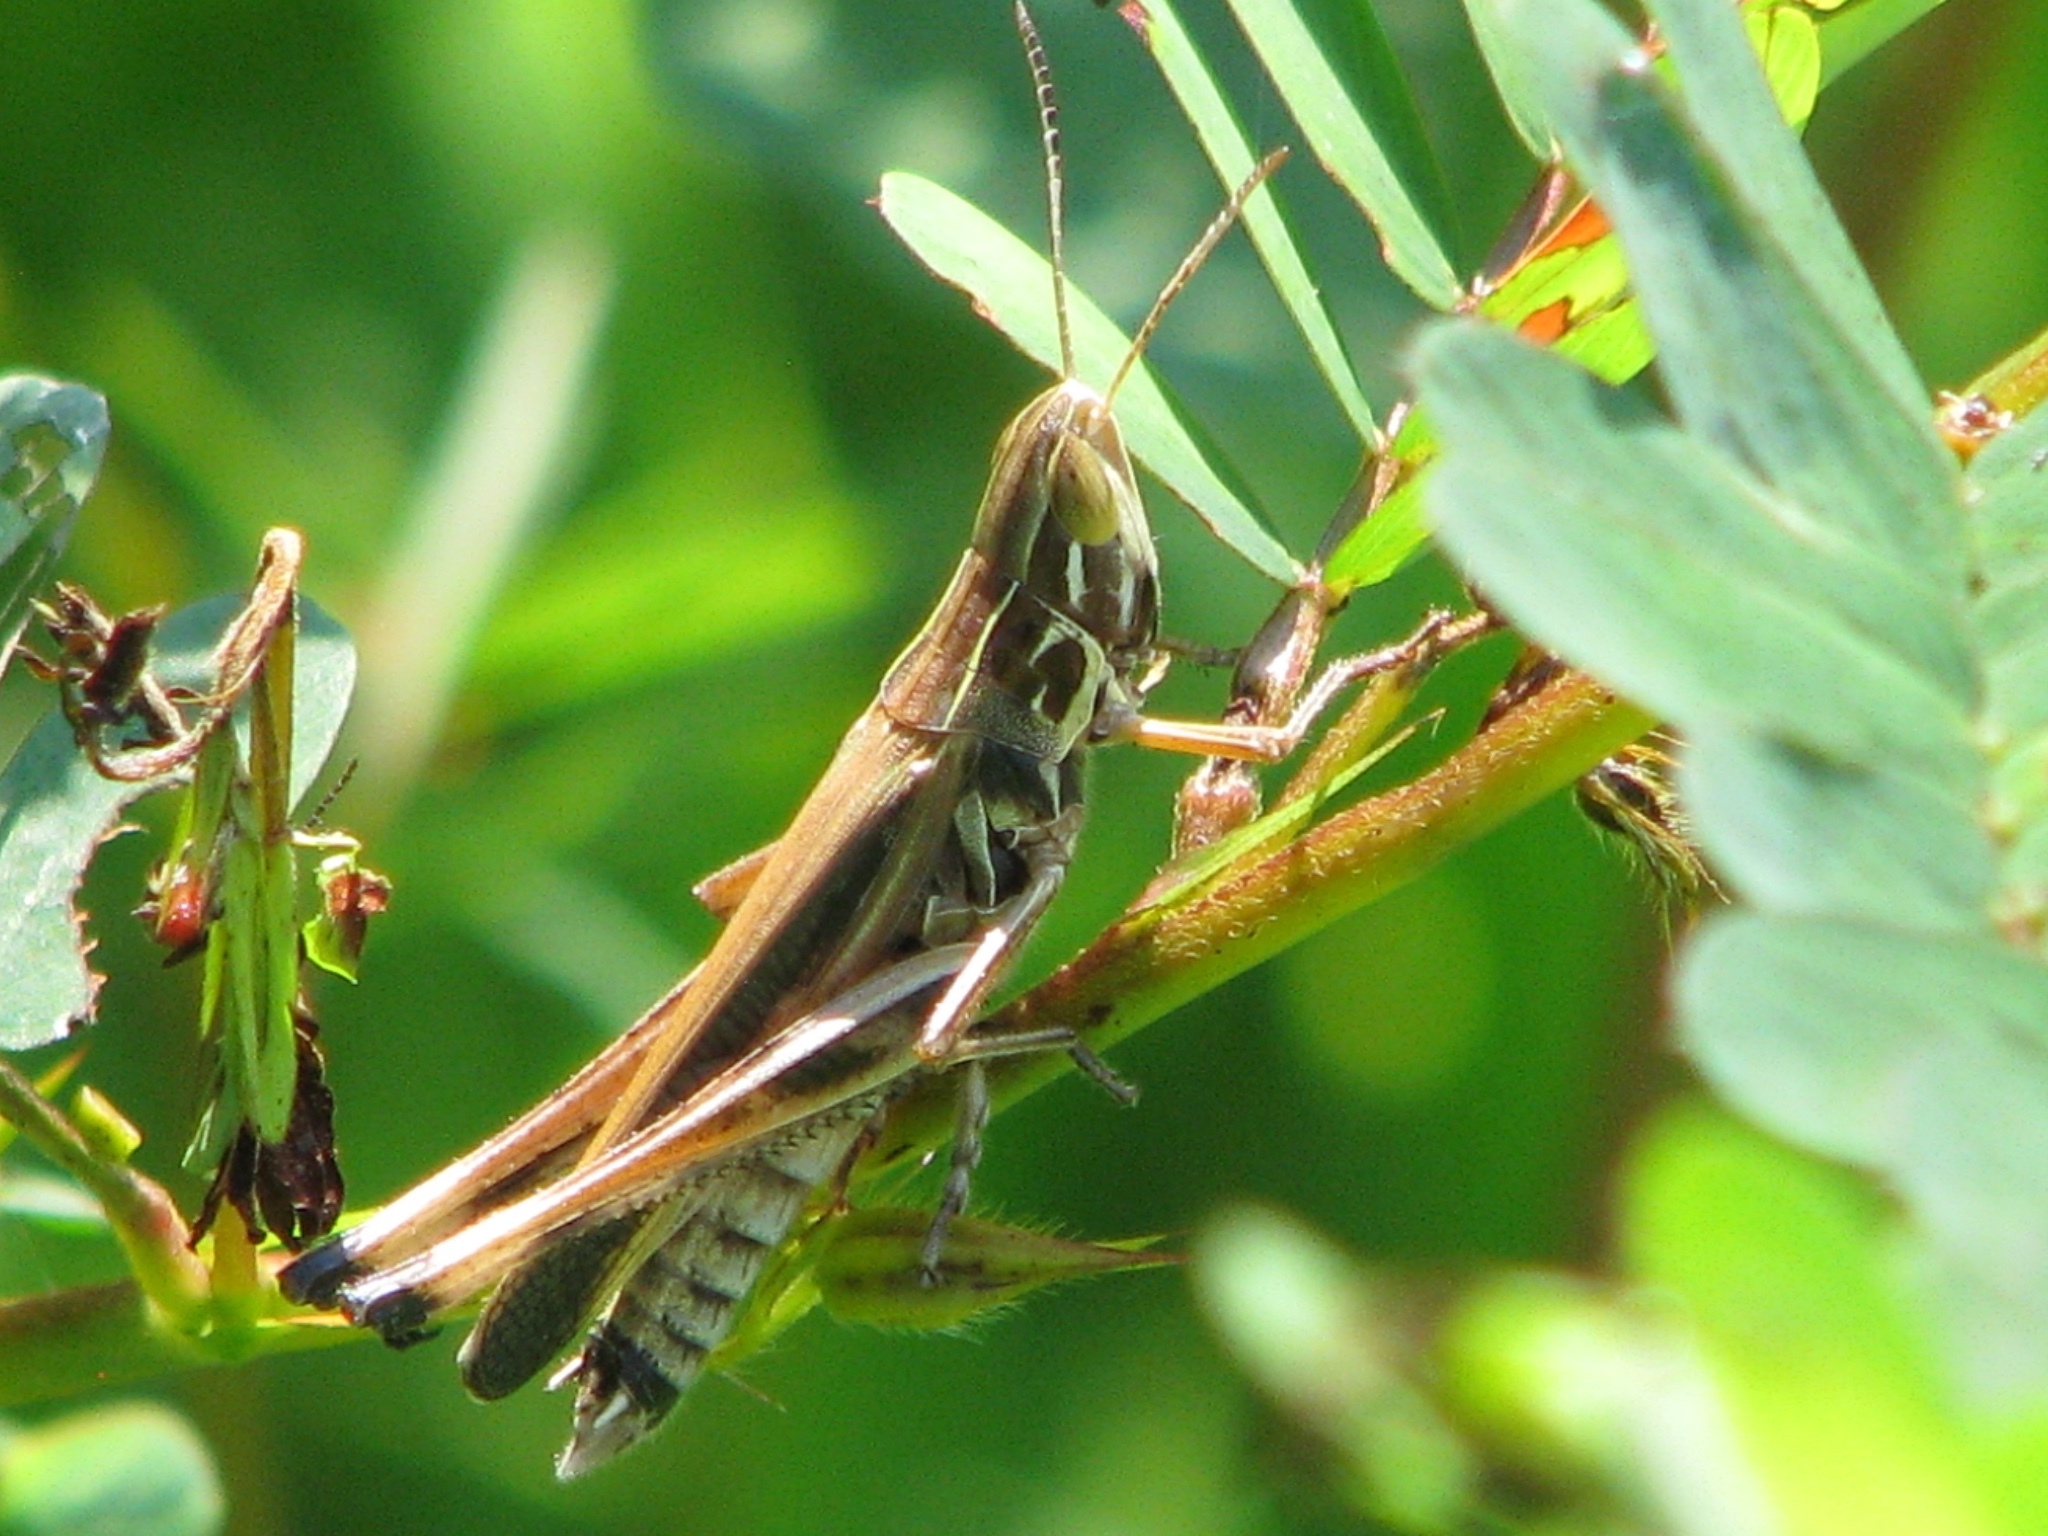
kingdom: Animalia
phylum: Arthropoda
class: Insecta
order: Orthoptera
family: Acrididae
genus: Syrbula
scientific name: Syrbula admirabilis
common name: Handsome grasshopper
